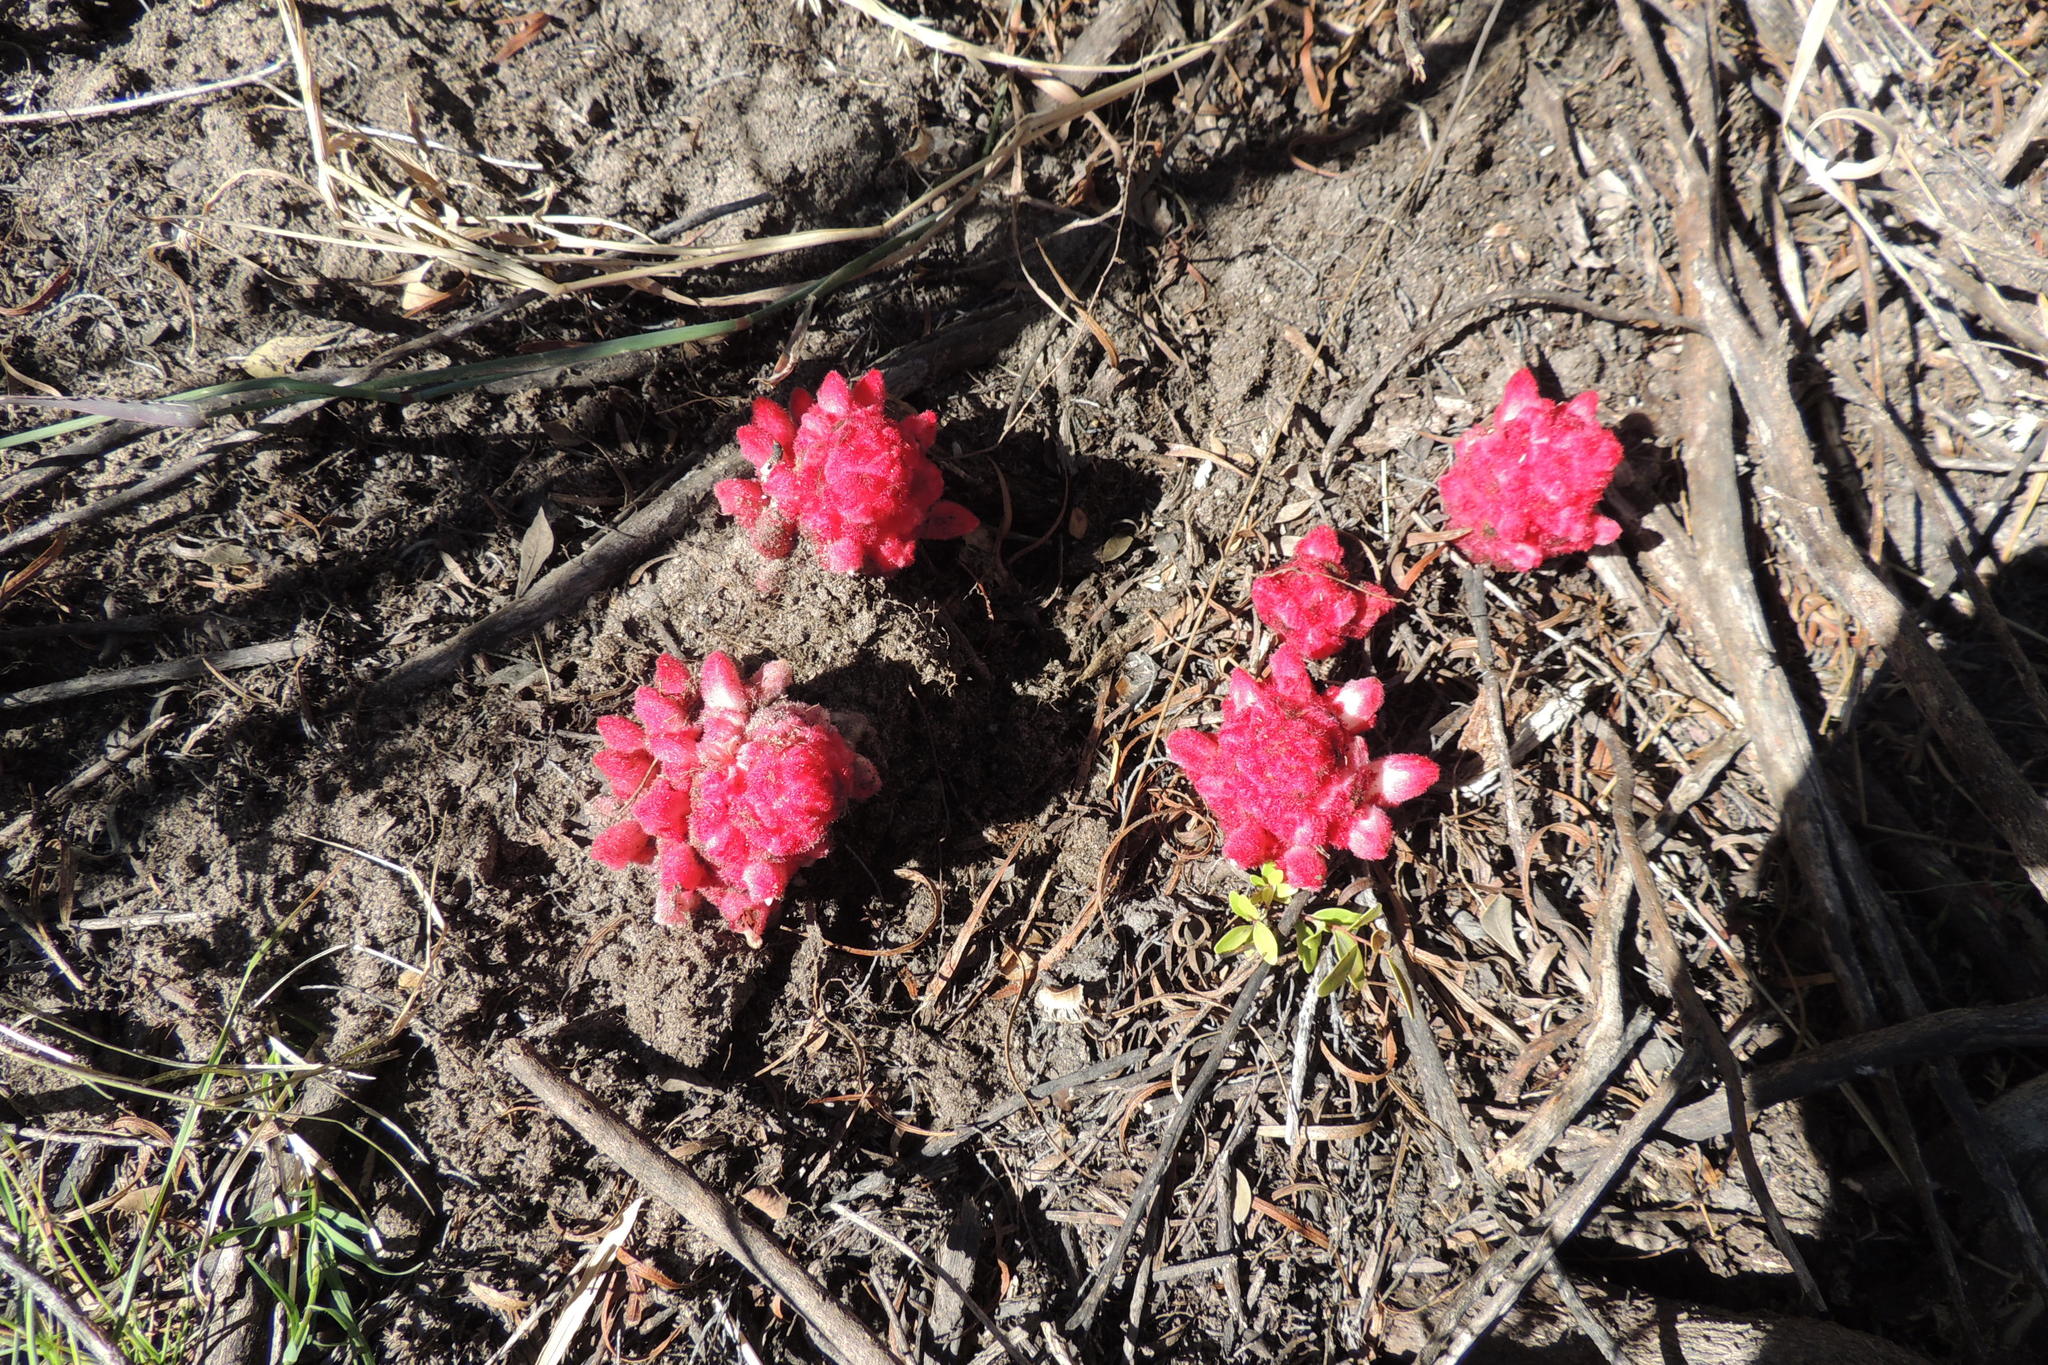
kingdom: Plantae
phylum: Tracheophyta
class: Magnoliopsida
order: Lamiales
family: Orobanchaceae
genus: Hyobanche
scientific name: Hyobanche sanguinea
